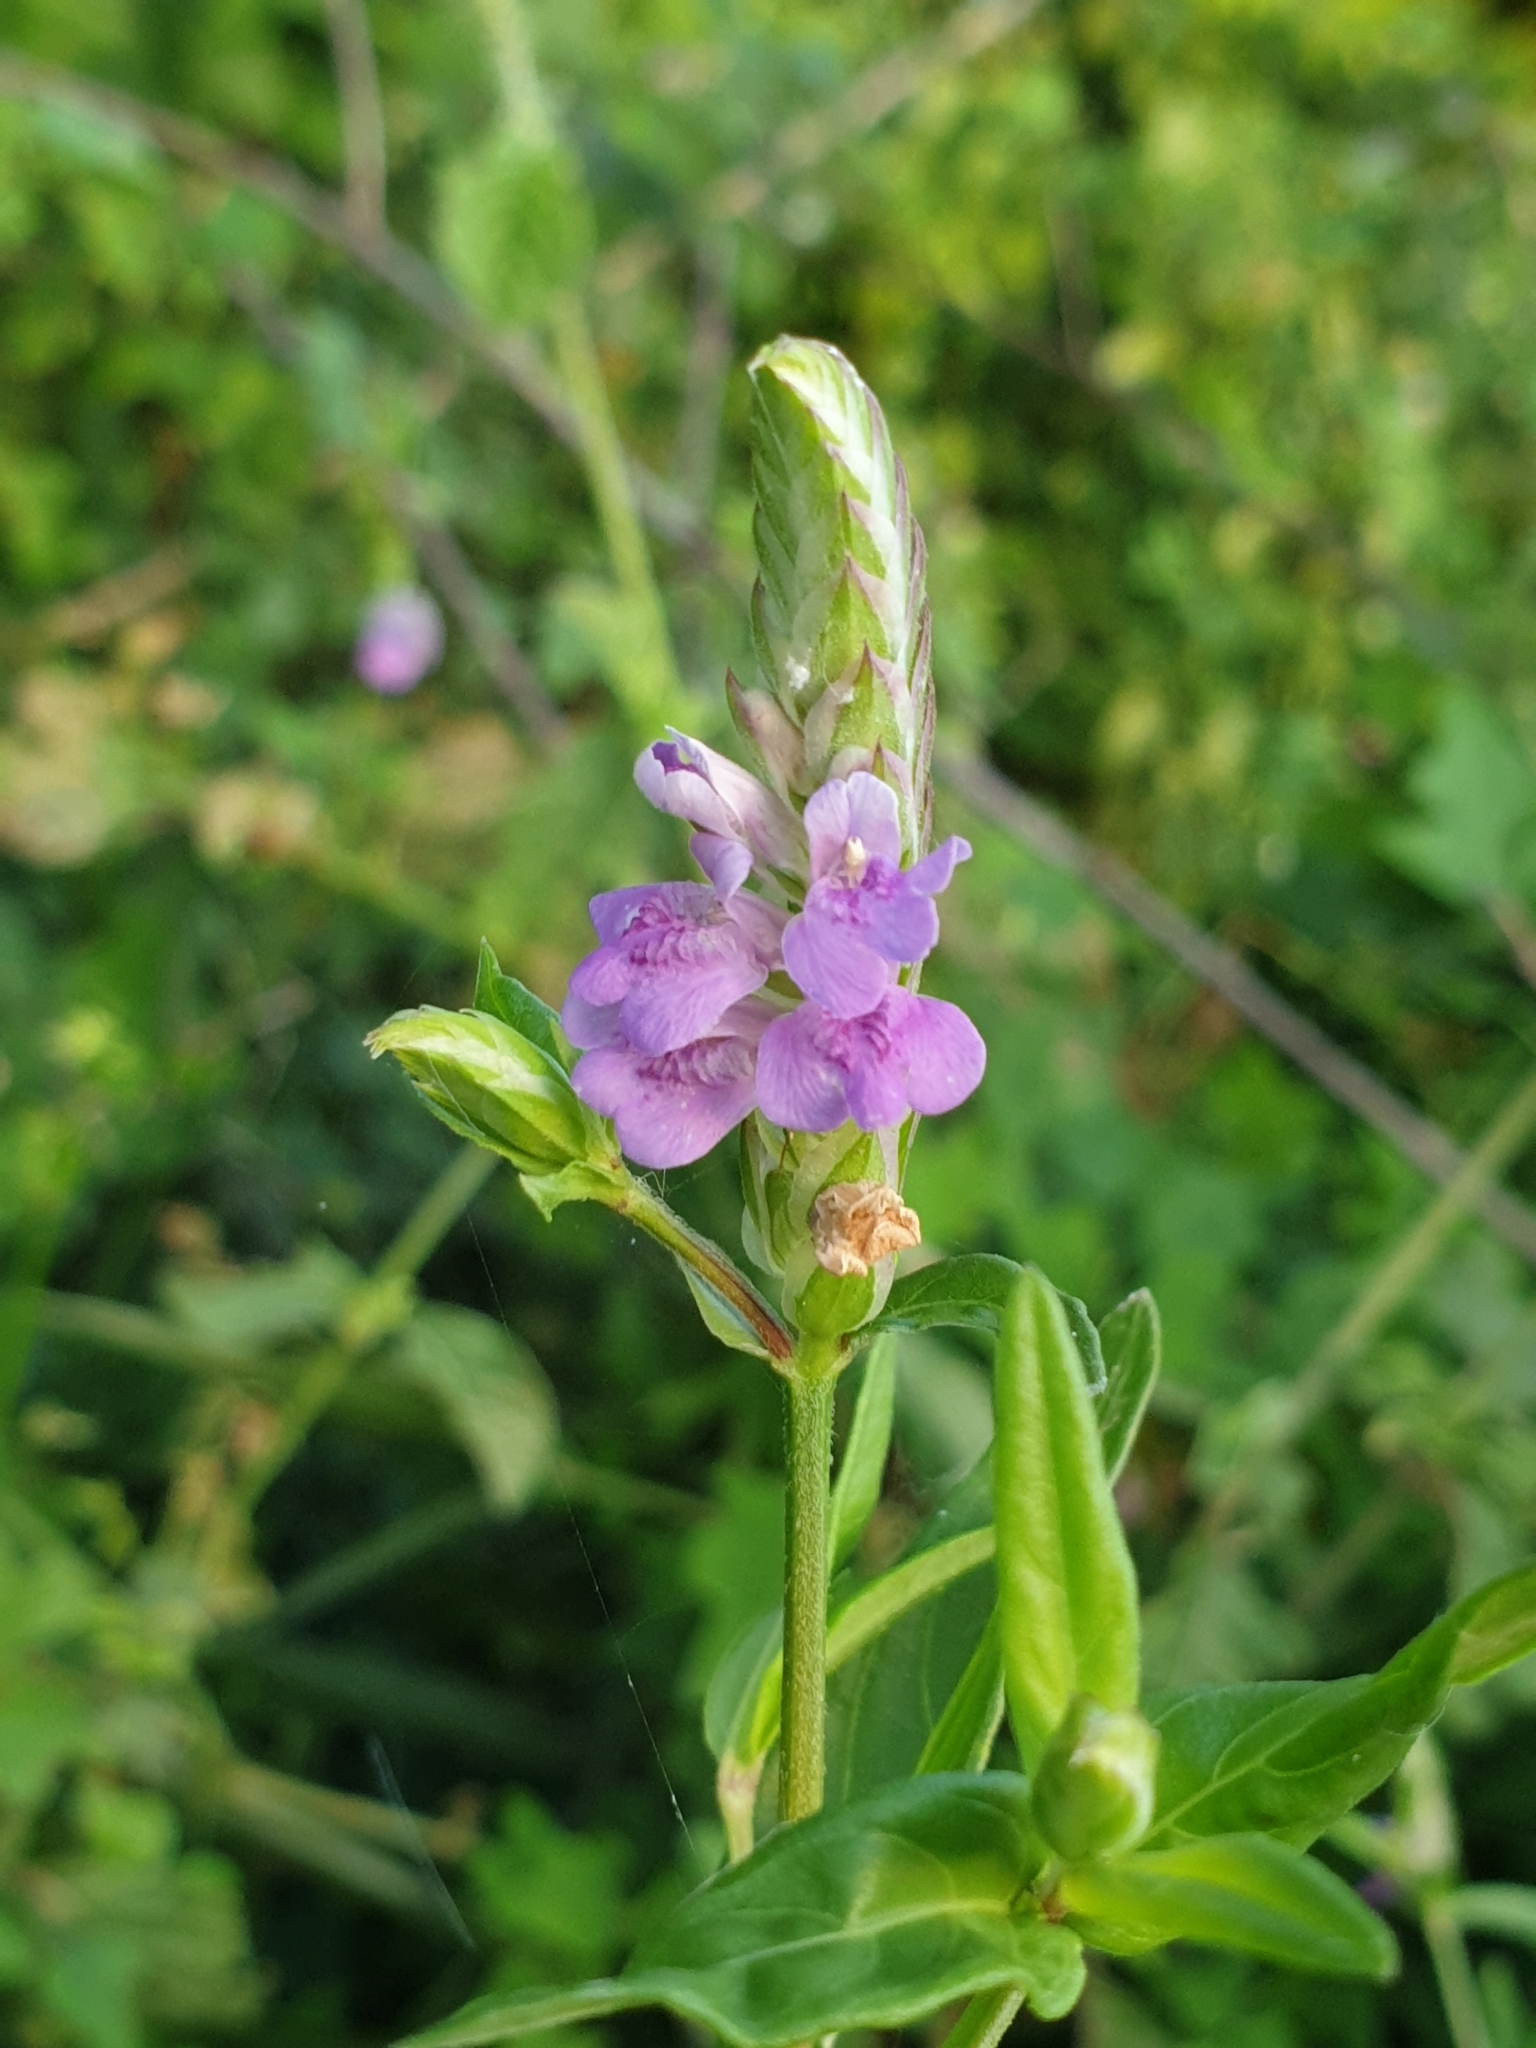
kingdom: Plantae
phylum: Tracheophyta
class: Magnoliopsida
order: Lamiales
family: Acanthaceae
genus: Rungia
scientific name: Rungia repens
